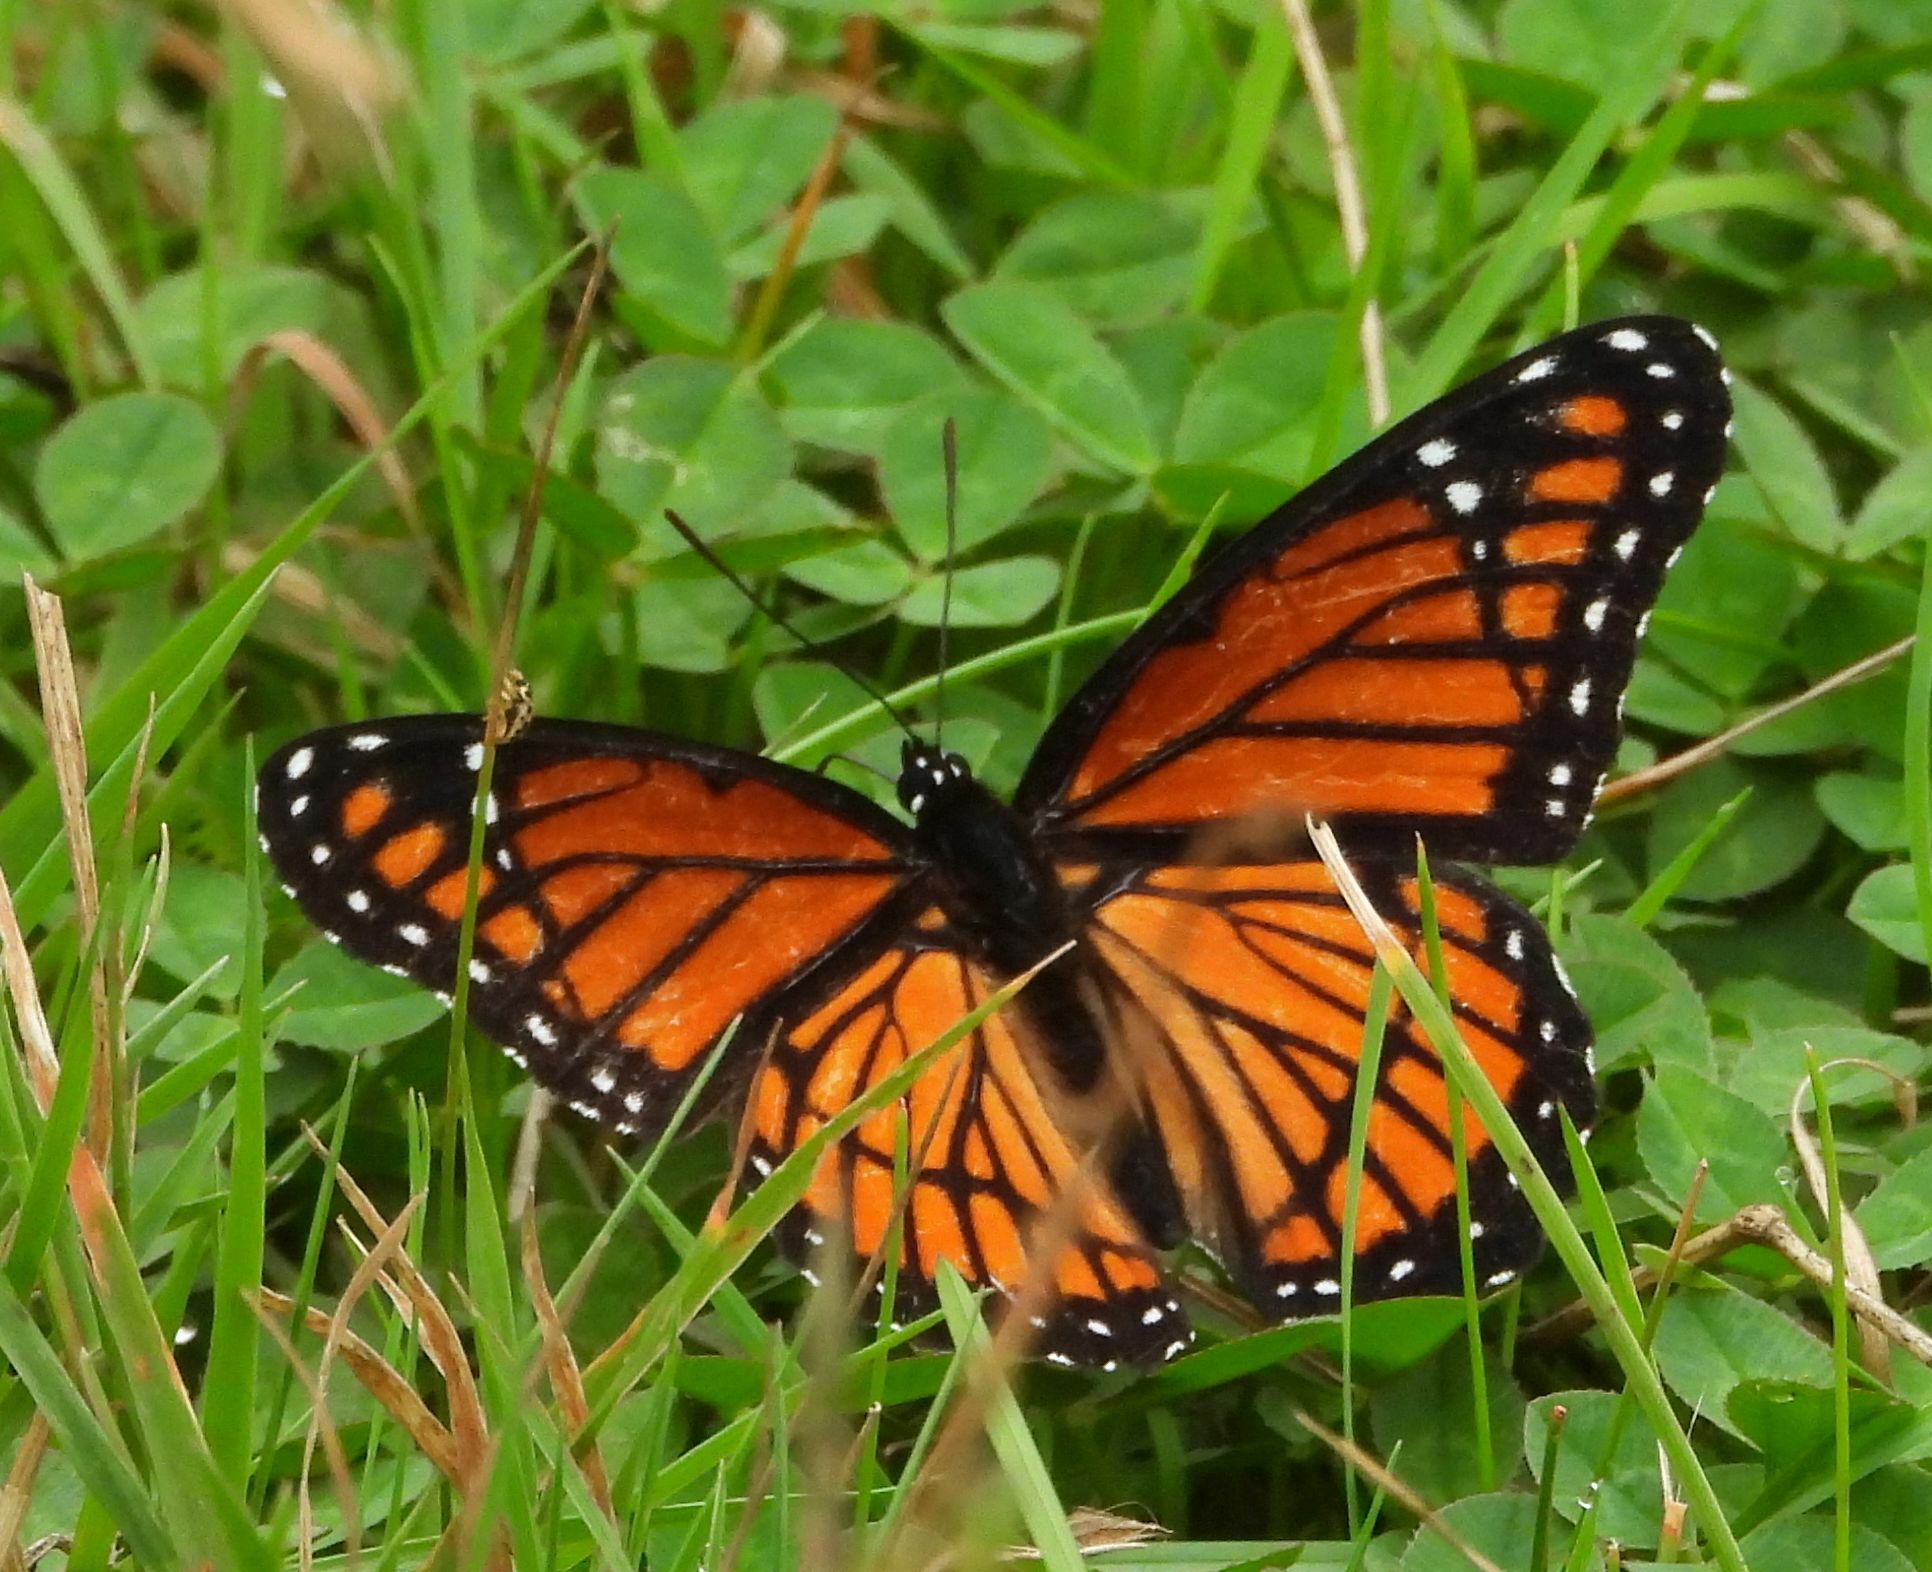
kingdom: Animalia
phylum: Arthropoda
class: Insecta
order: Lepidoptera
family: Nymphalidae
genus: Limenitis
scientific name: Limenitis archippus
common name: Viceroy
